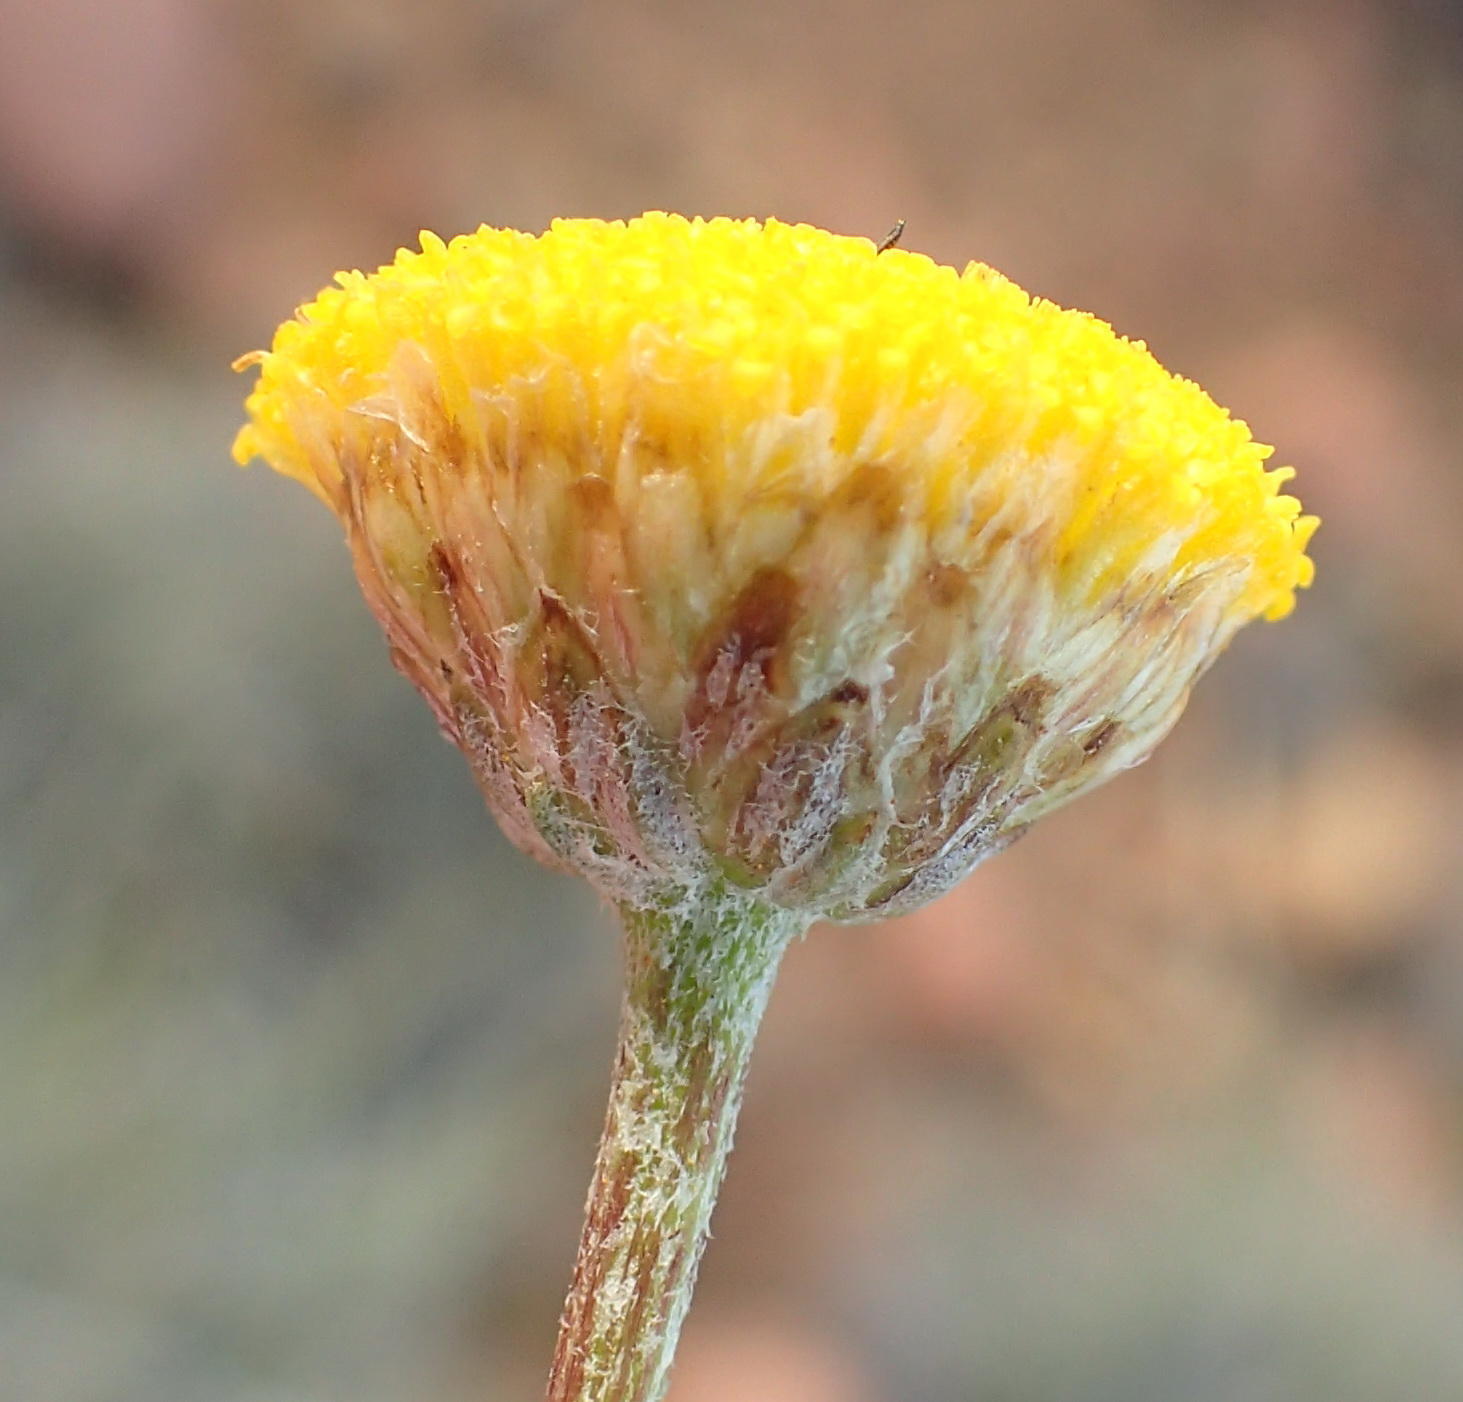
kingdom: Plantae
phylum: Tracheophyta
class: Magnoliopsida
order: Asterales
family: Asteraceae
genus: Pentzia
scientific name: Pentzia incana
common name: African sheepbush
